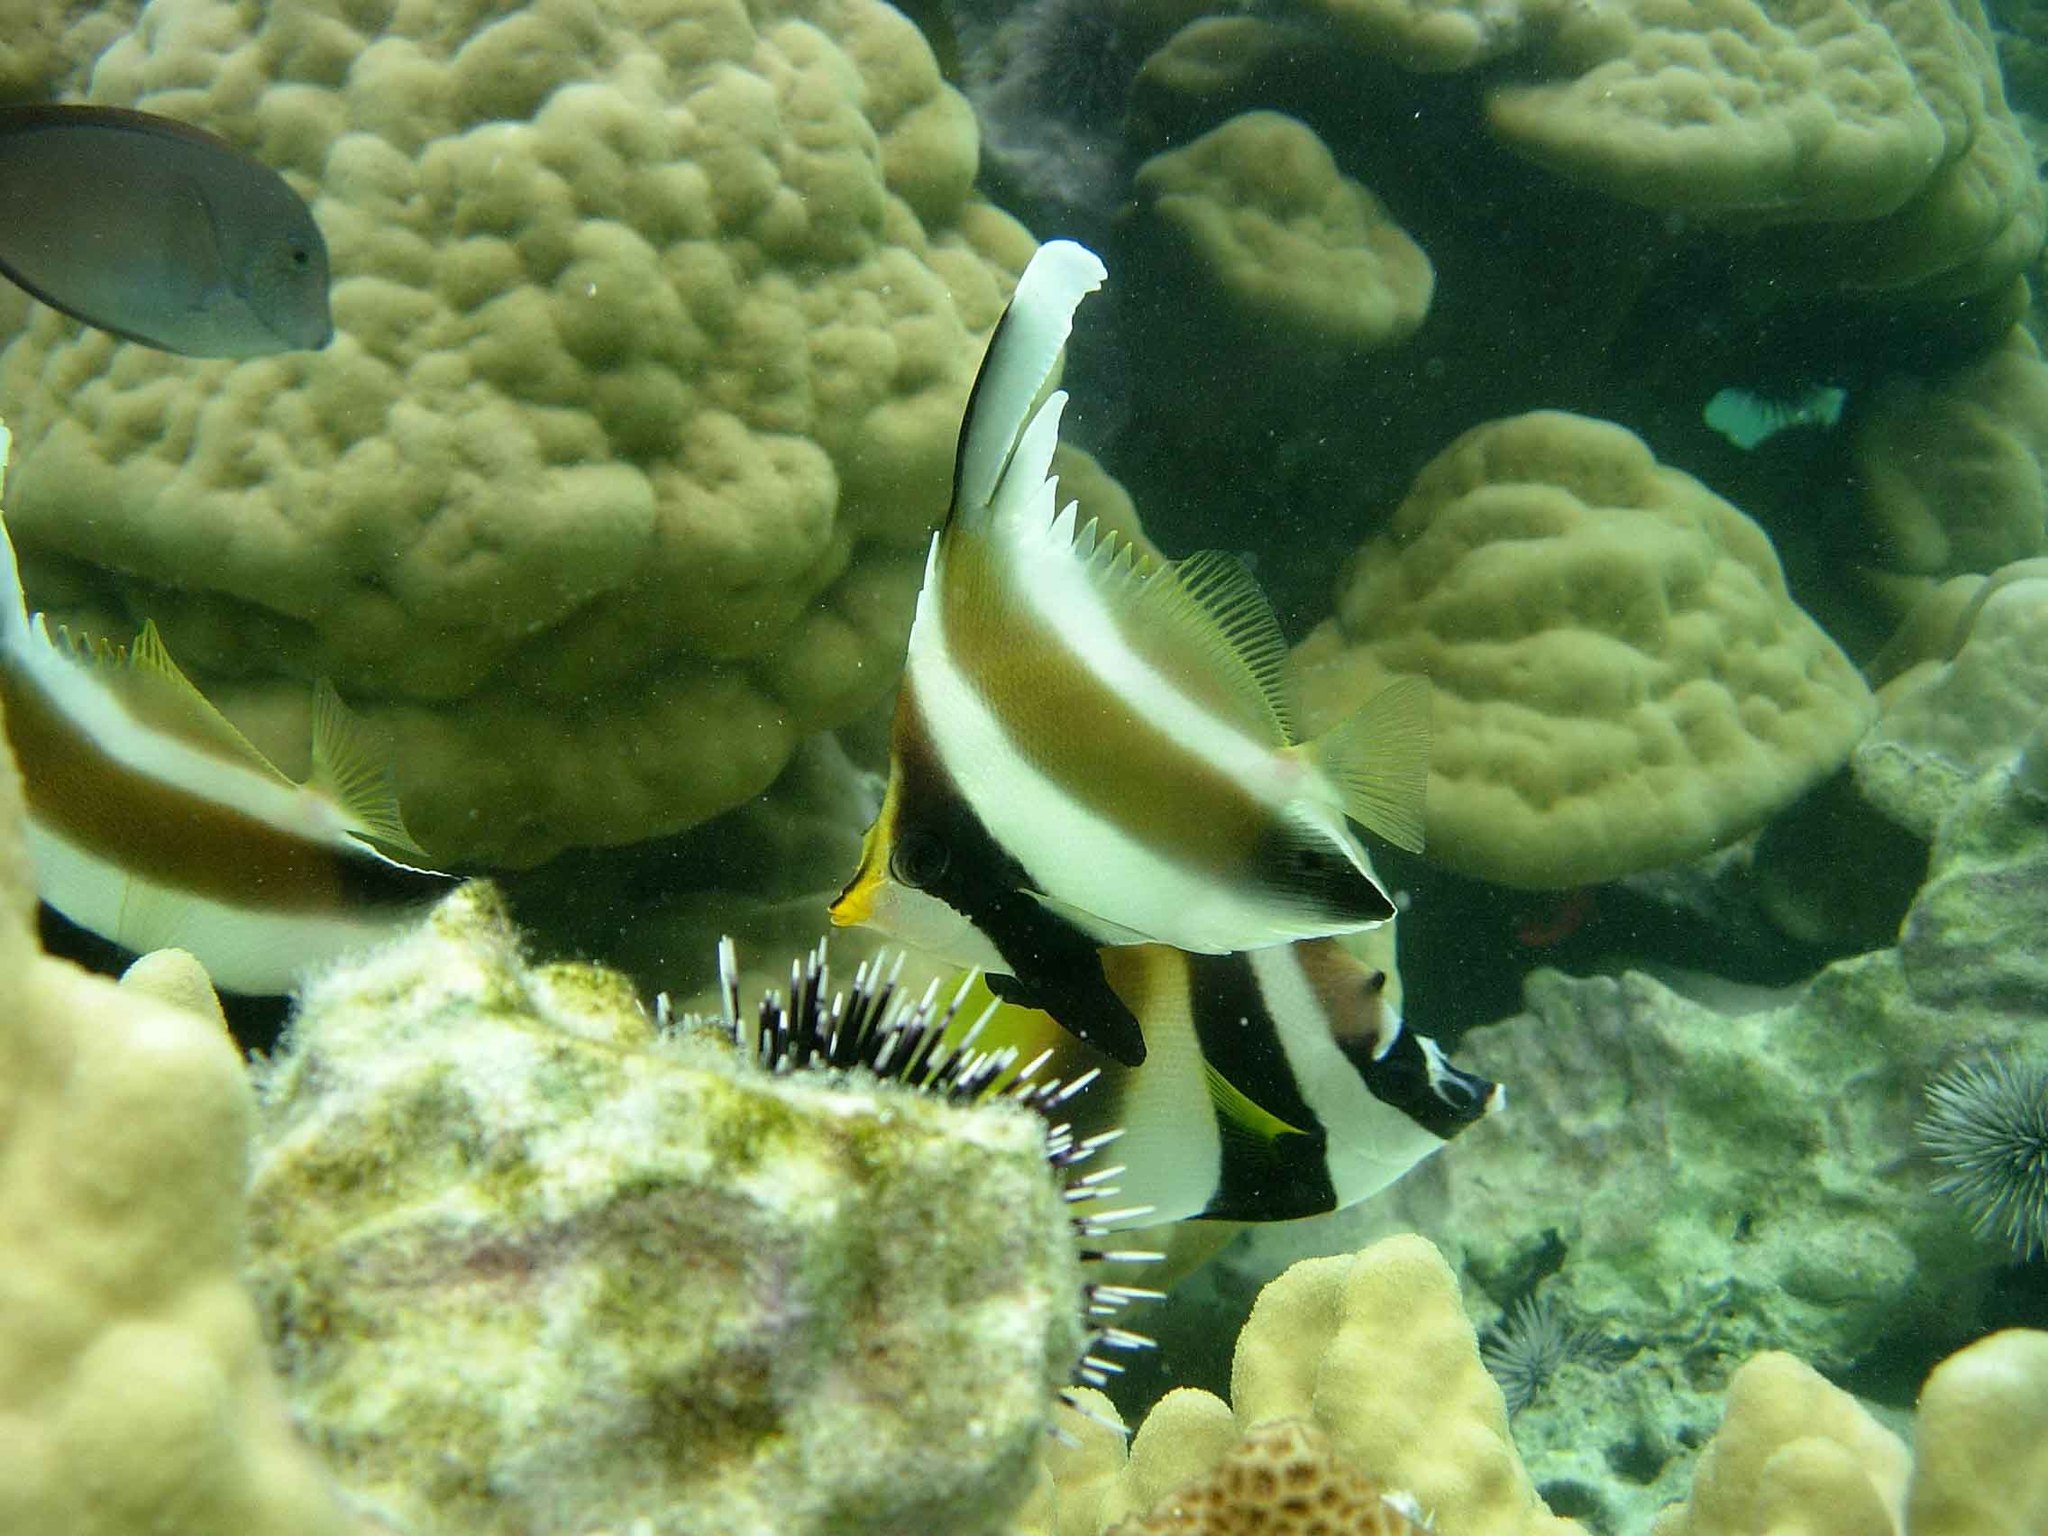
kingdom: Animalia
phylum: Chordata
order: Perciformes
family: Chaetodontidae
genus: Heniochus
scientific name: Heniochus chrysostomus
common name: Horned bannerfish
